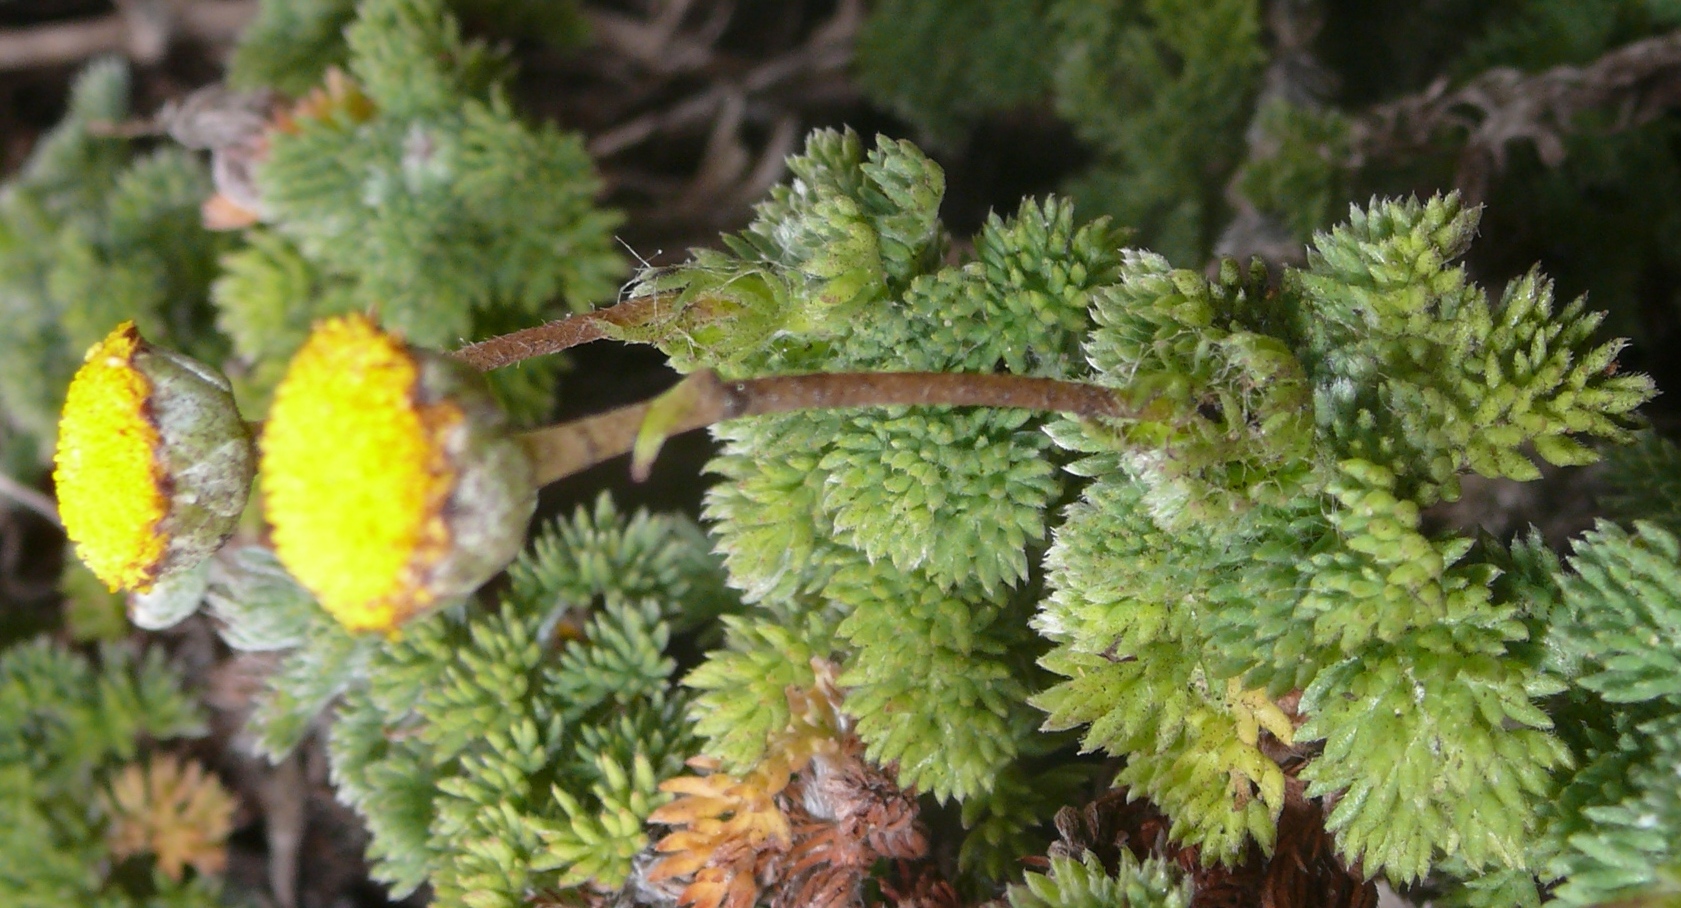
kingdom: Plantae
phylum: Tracheophyta
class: Magnoliopsida
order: Asterales
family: Asteraceae
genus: Cotula
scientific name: Cotula discolor
